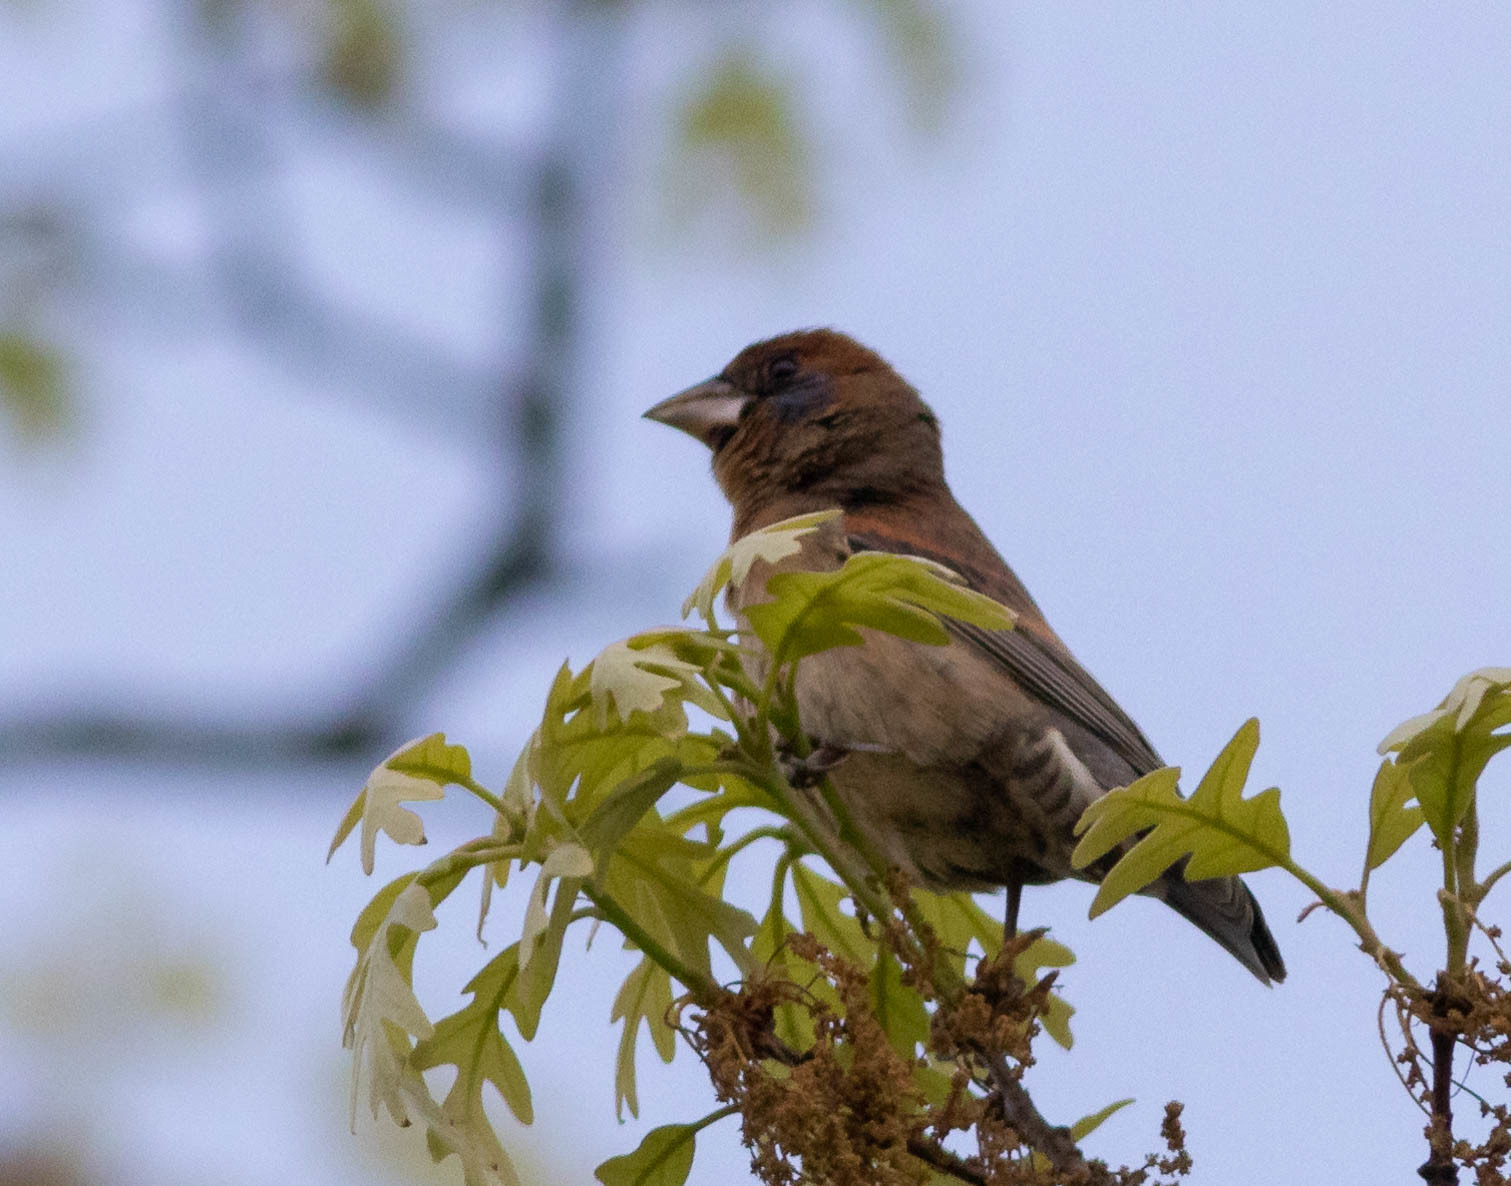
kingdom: Animalia
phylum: Chordata
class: Aves
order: Passeriformes
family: Cardinalidae
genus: Passerina
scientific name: Passerina caerulea
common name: Blue grosbeak
